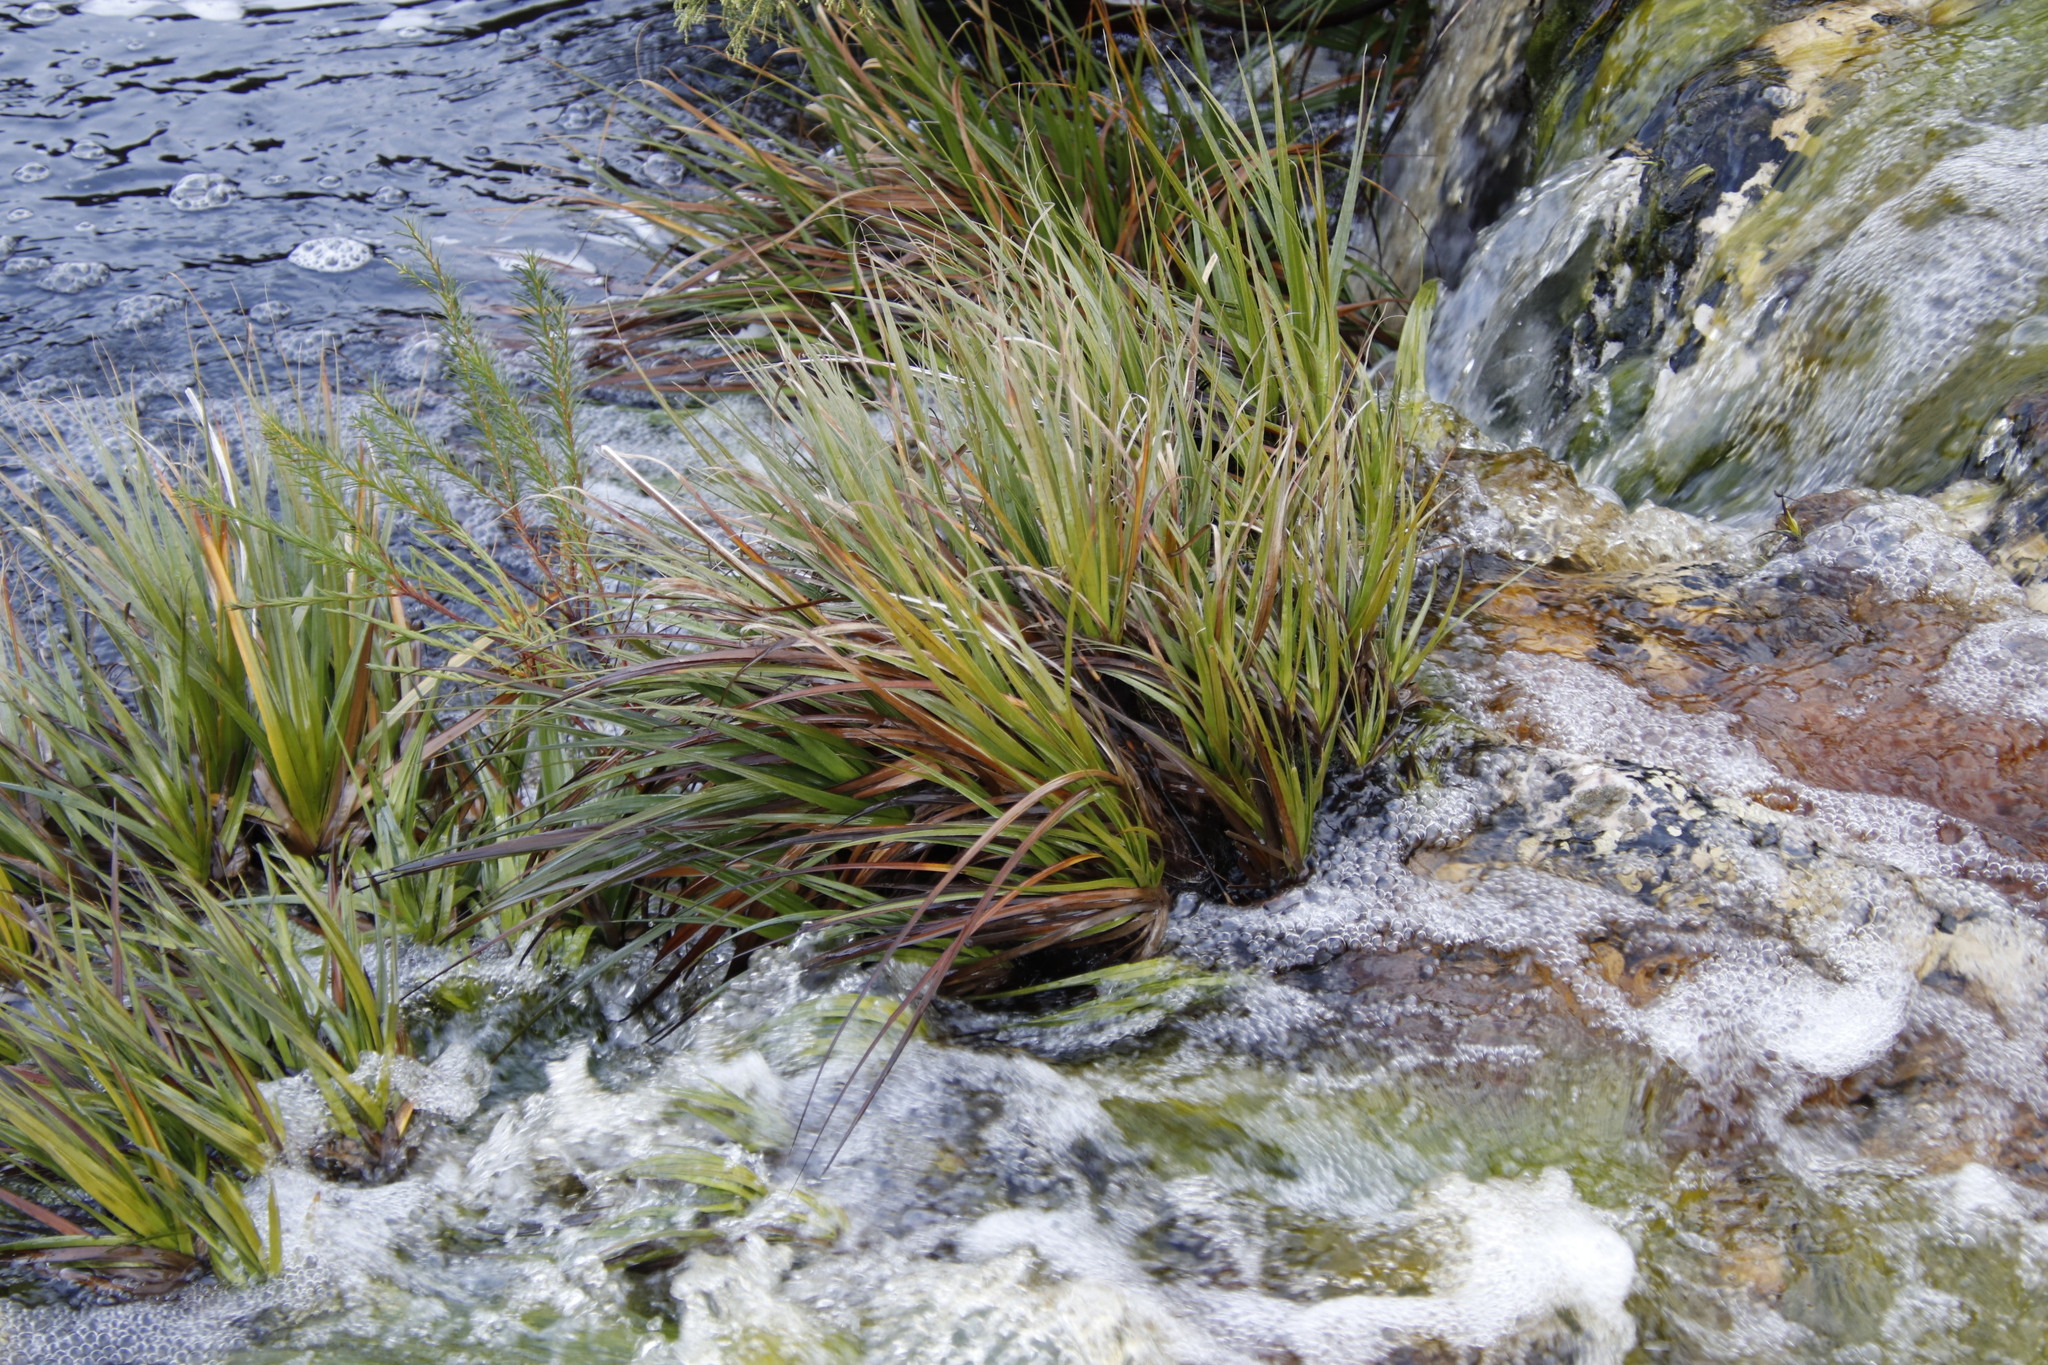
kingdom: Plantae
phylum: Tracheophyta
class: Liliopsida
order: Poales
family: Thurniaceae
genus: Prionium
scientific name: Prionium serratum
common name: Palmiet
